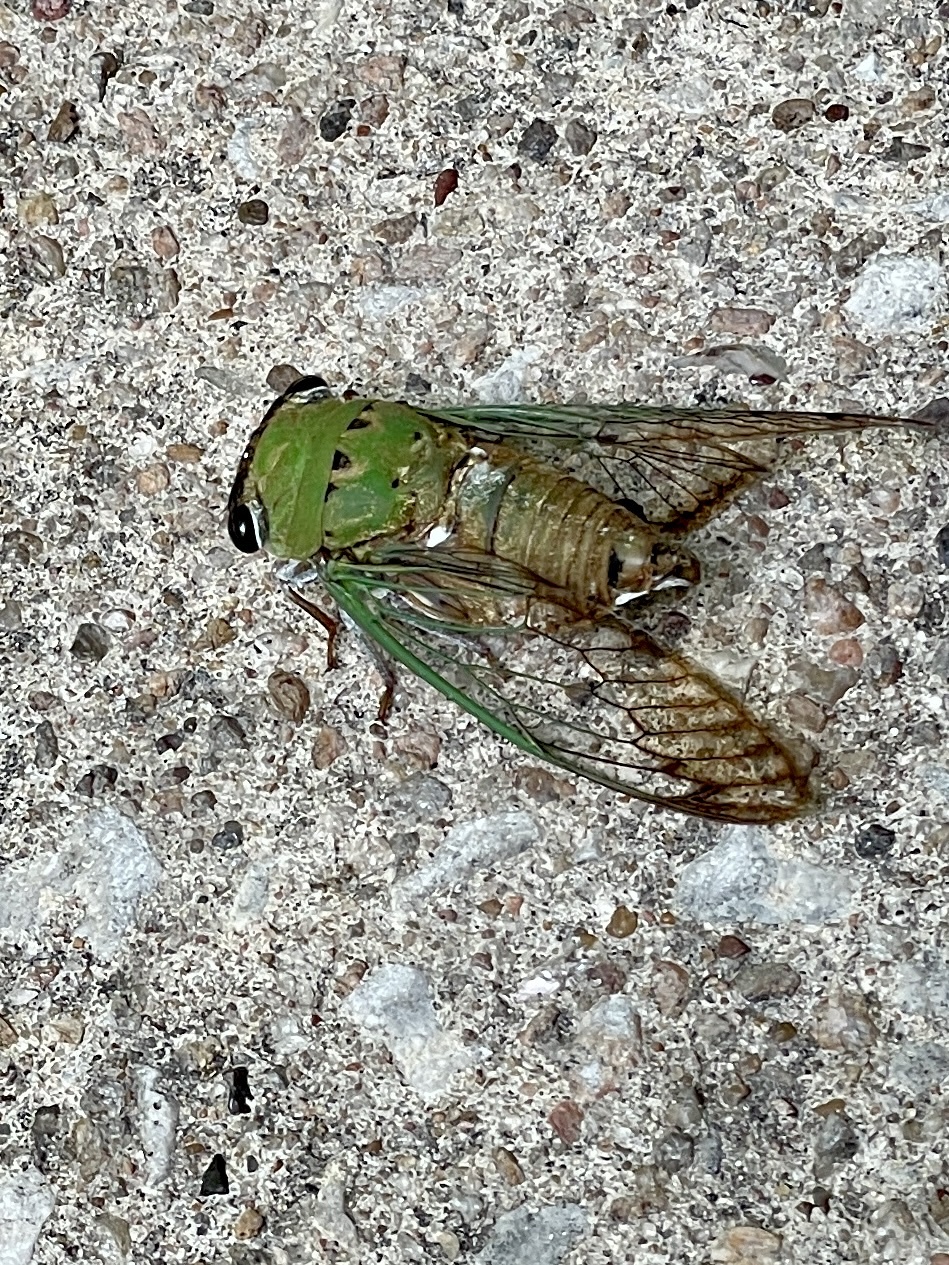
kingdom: Animalia
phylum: Arthropoda
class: Insecta
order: Hemiptera
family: Cicadidae
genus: Neotibicen
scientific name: Neotibicen superbus
